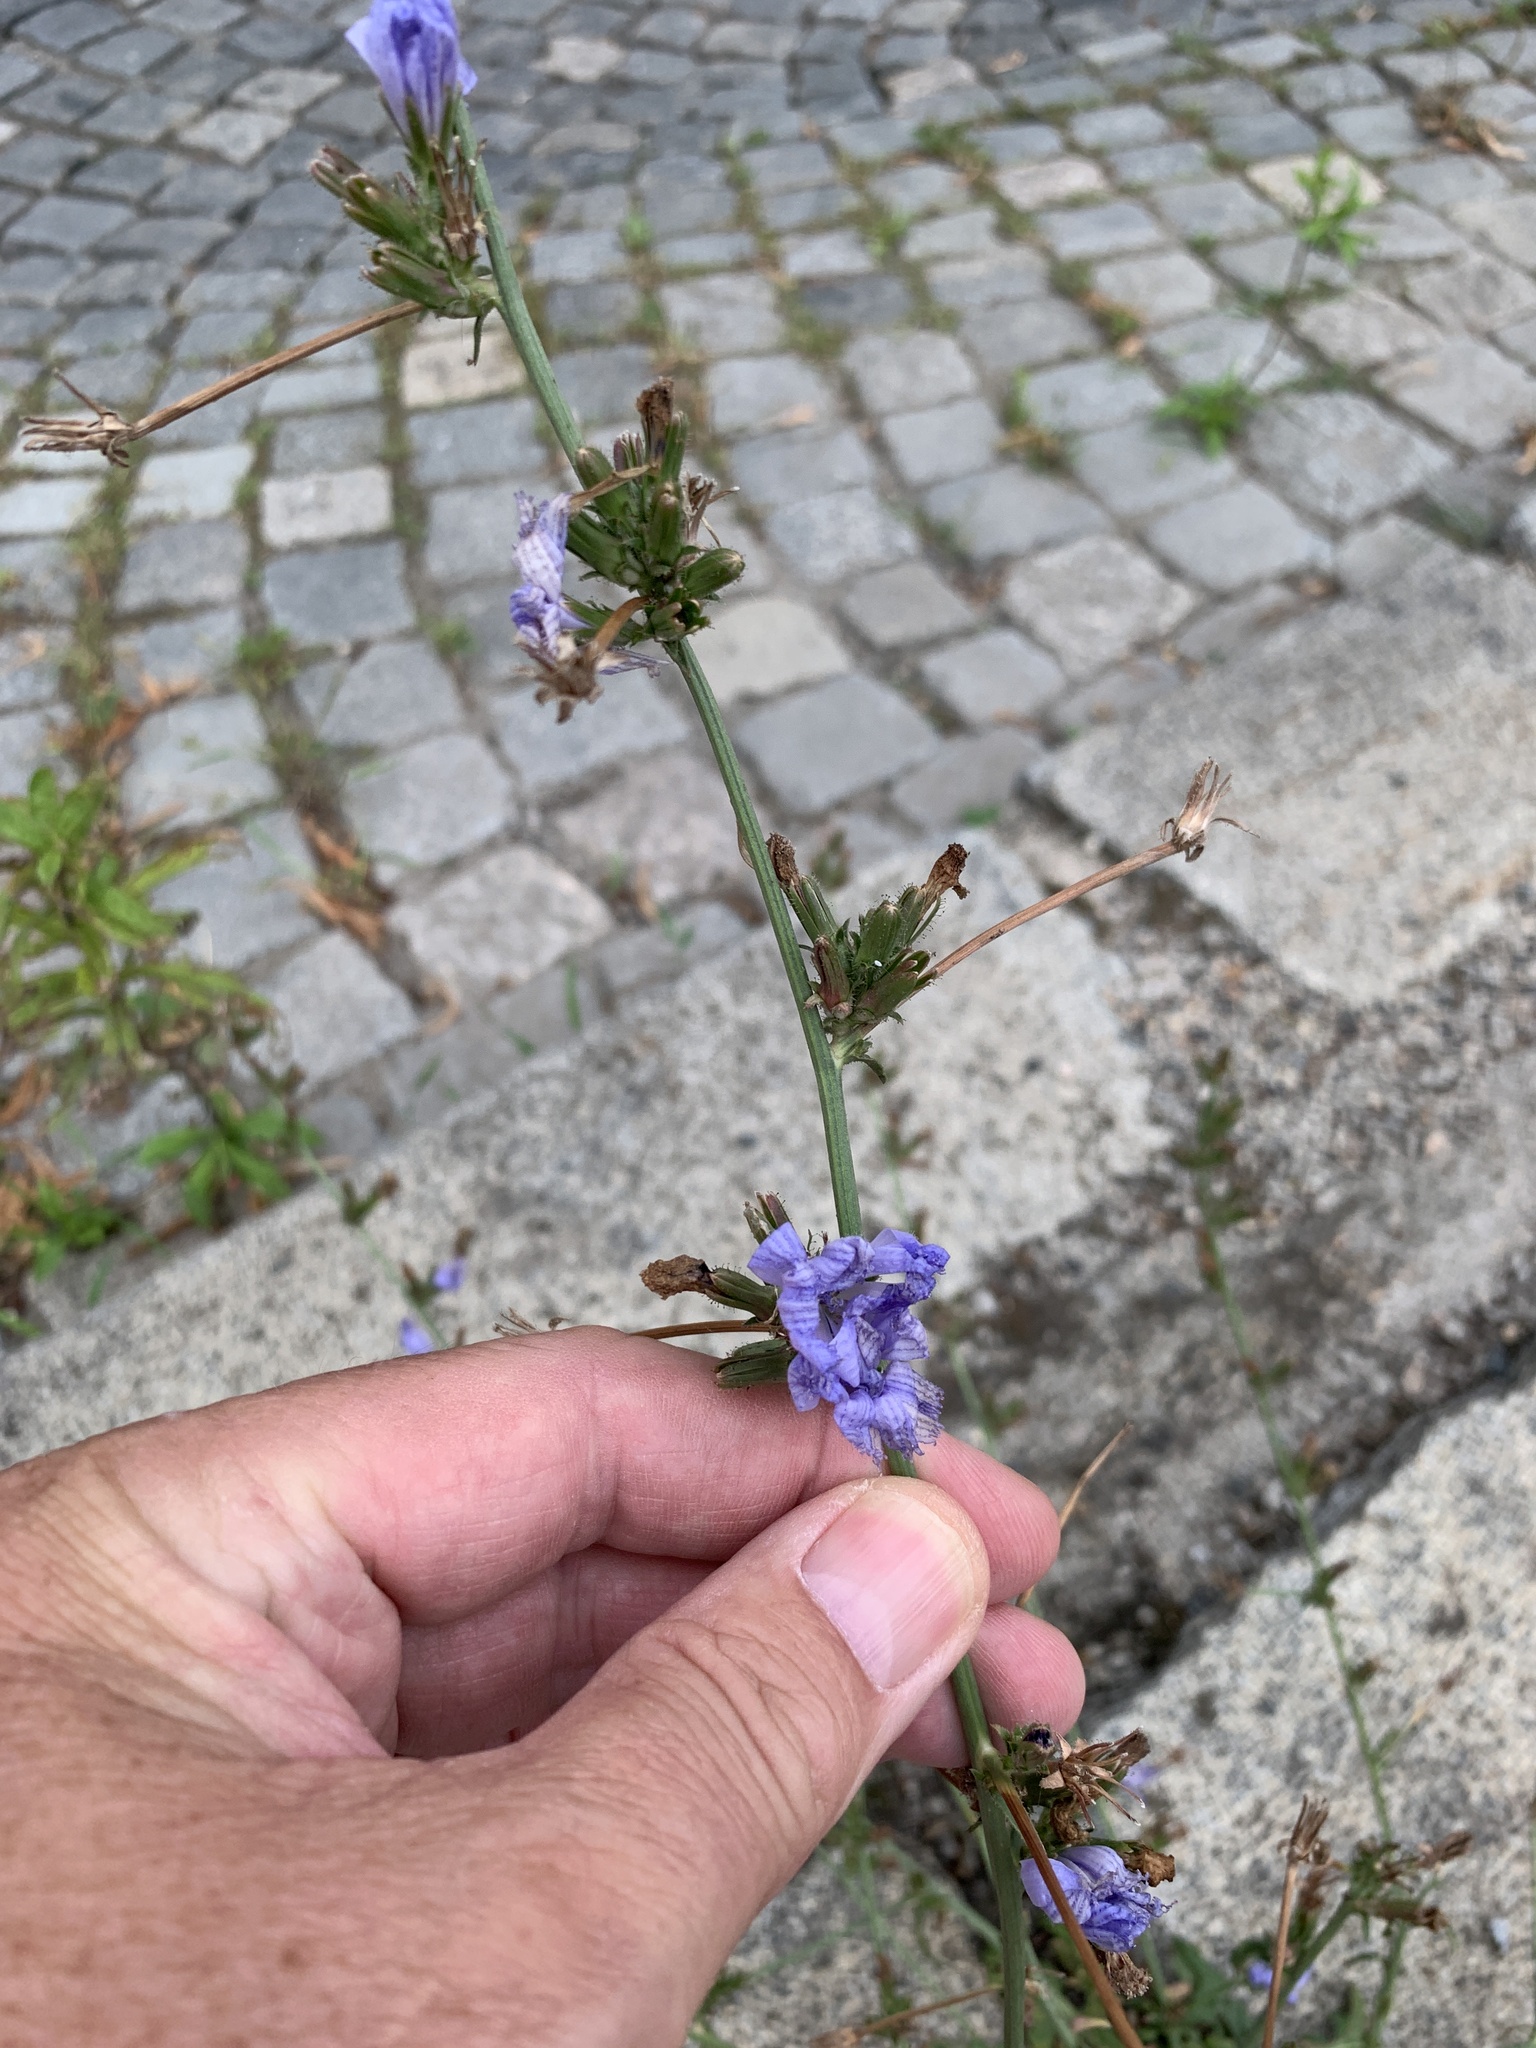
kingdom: Plantae
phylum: Tracheophyta
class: Magnoliopsida
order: Asterales
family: Asteraceae
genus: Cichorium
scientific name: Cichorium intybus
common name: Chicory
